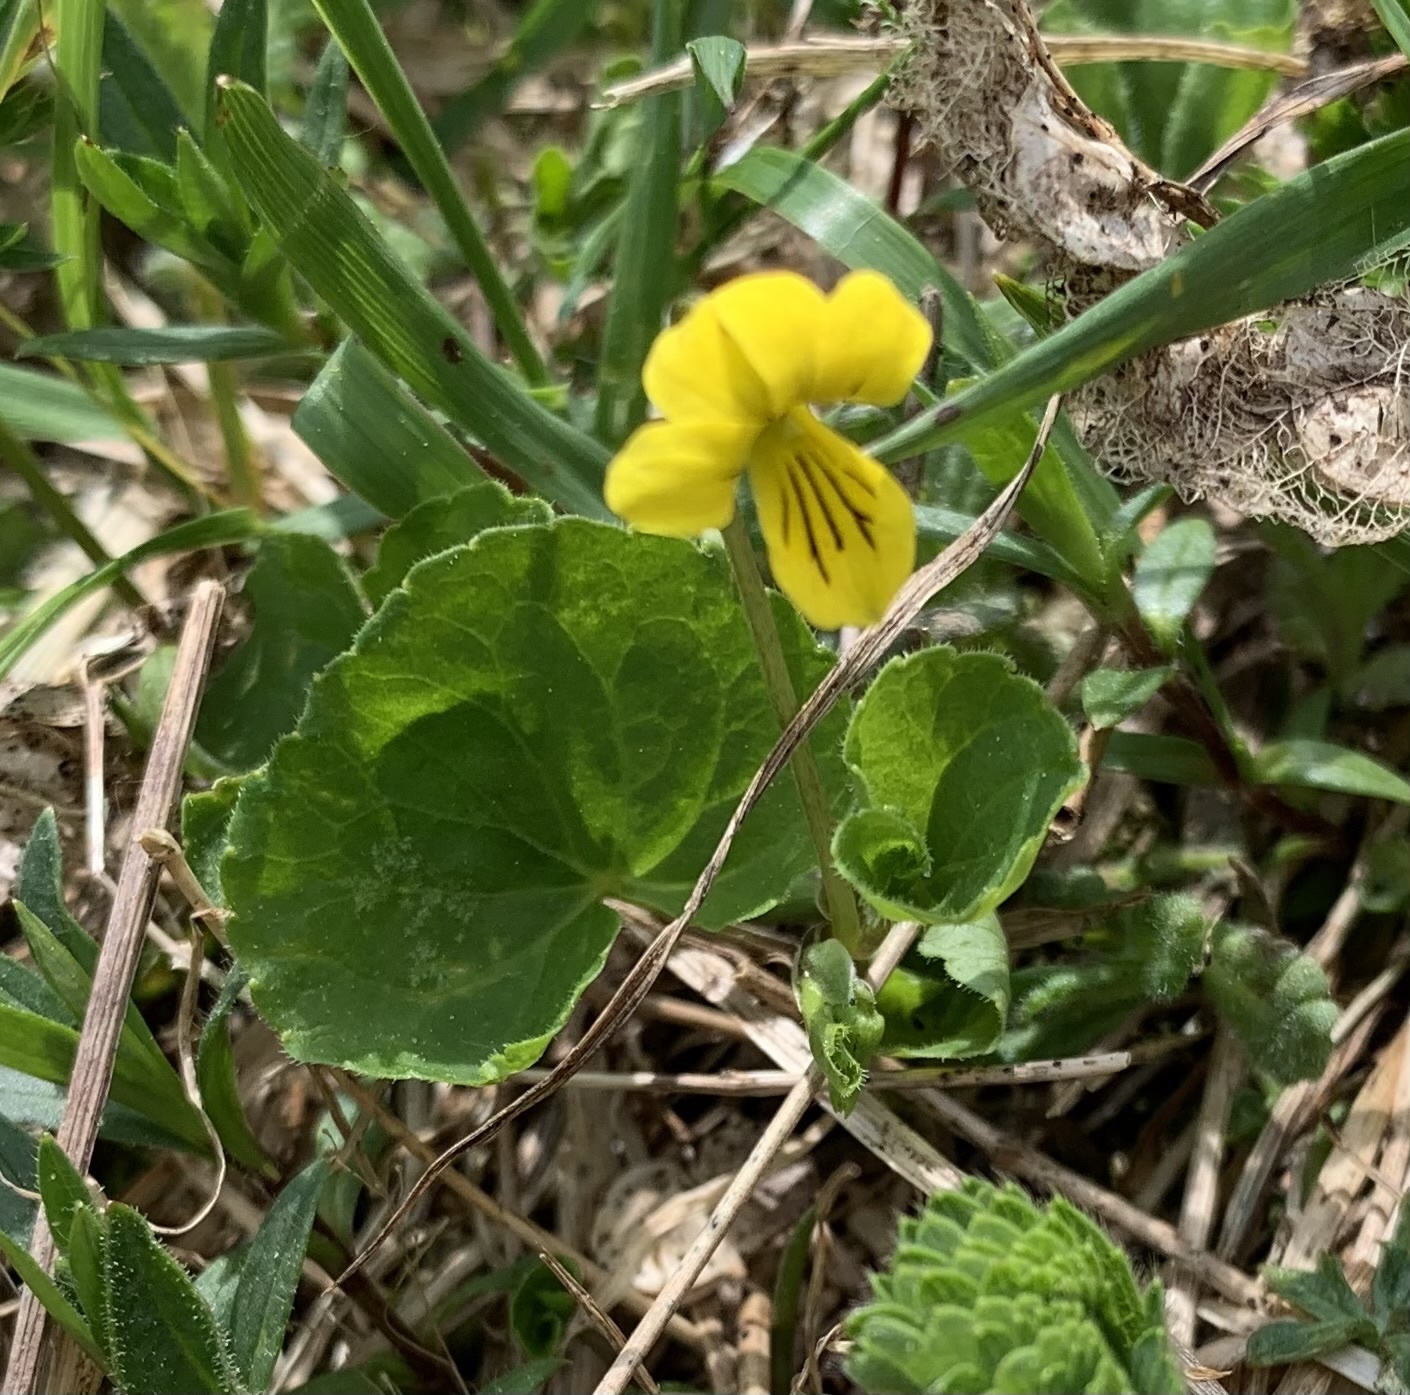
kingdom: Plantae
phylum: Tracheophyta
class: Magnoliopsida
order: Malpighiales
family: Violaceae
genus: Viola
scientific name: Viola biflora
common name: Alpine yellow violet
